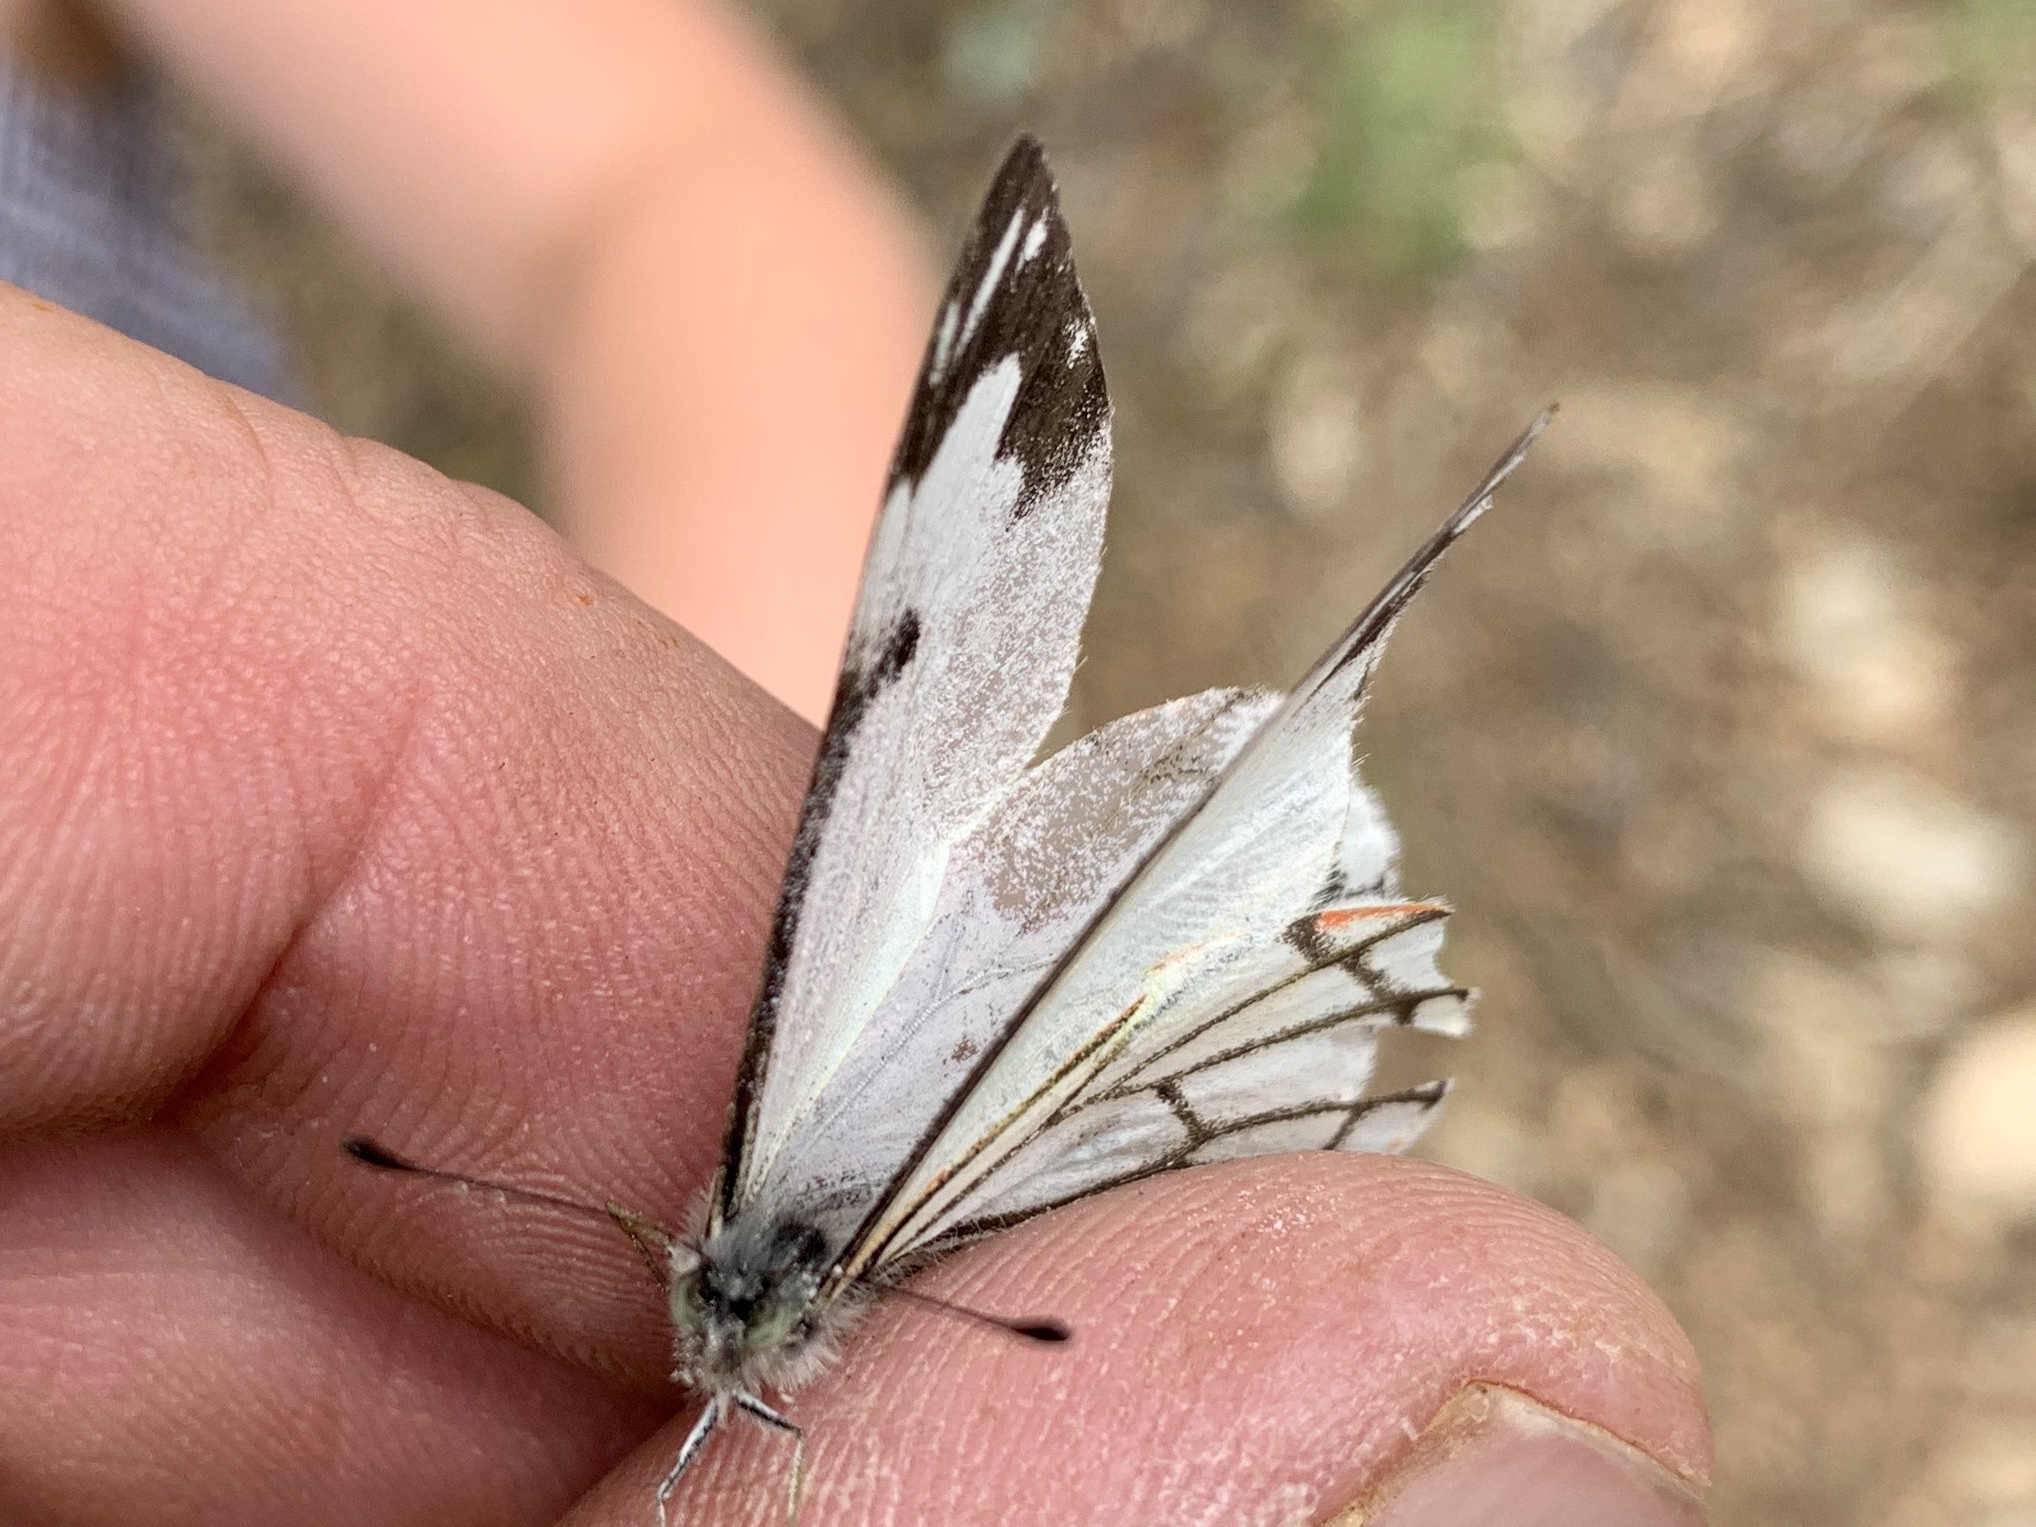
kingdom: Animalia
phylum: Arthropoda
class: Insecta
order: Lepidoptera
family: Pieridae
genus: Neophasia
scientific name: Neophasia menapia
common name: Pine white
